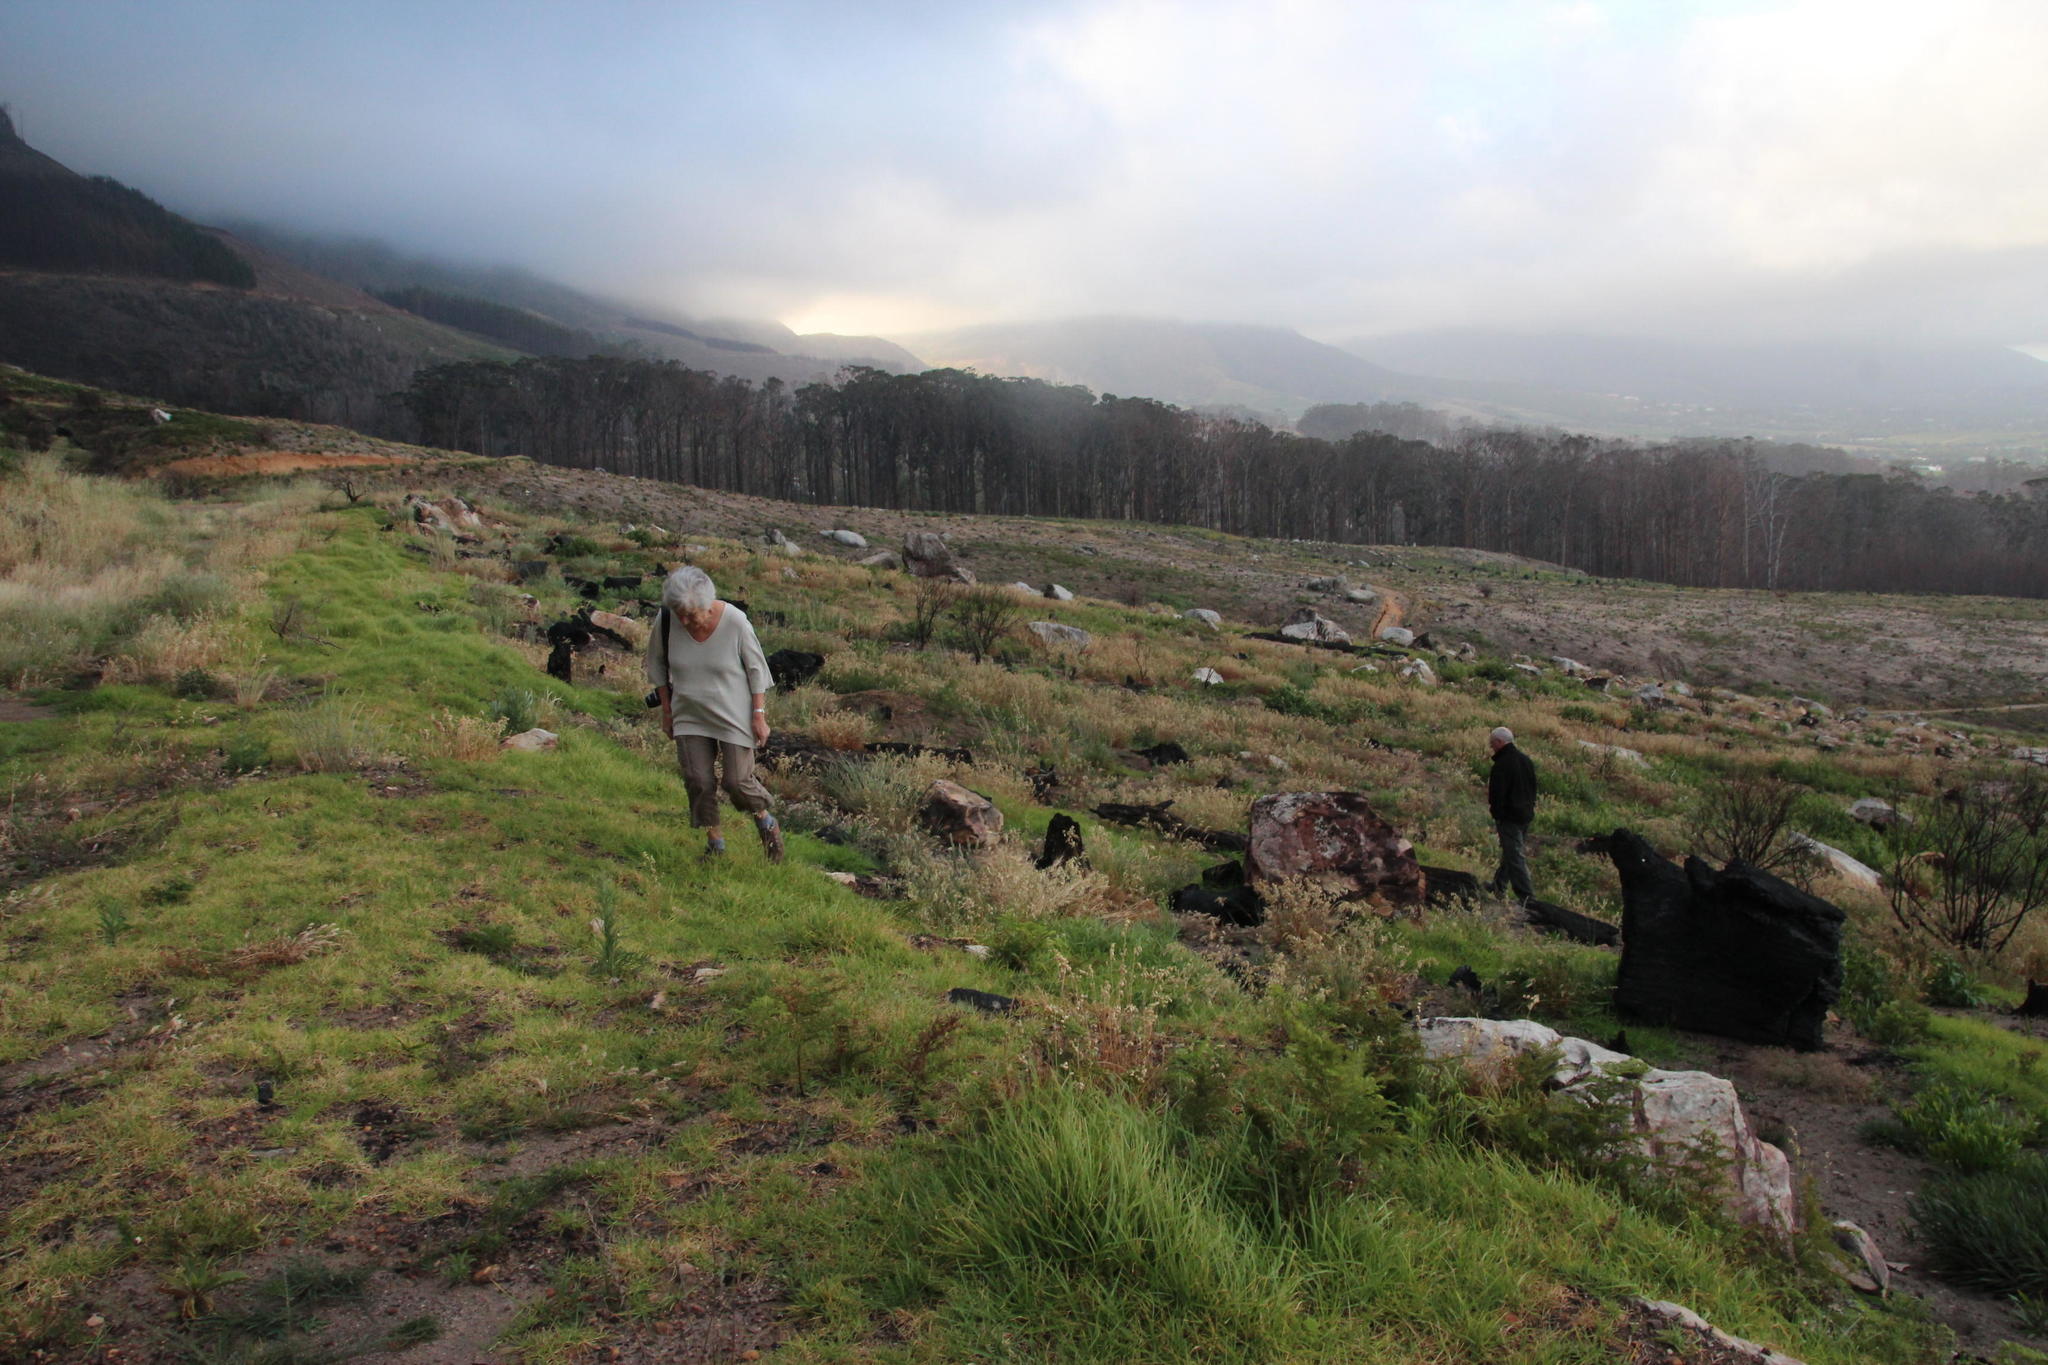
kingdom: Plantae
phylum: Tracheophyta
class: Liliopsida
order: Poales
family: Poaceae
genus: Cenchrus
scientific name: Cenchrus clandestinus
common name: Kikuyugrass
